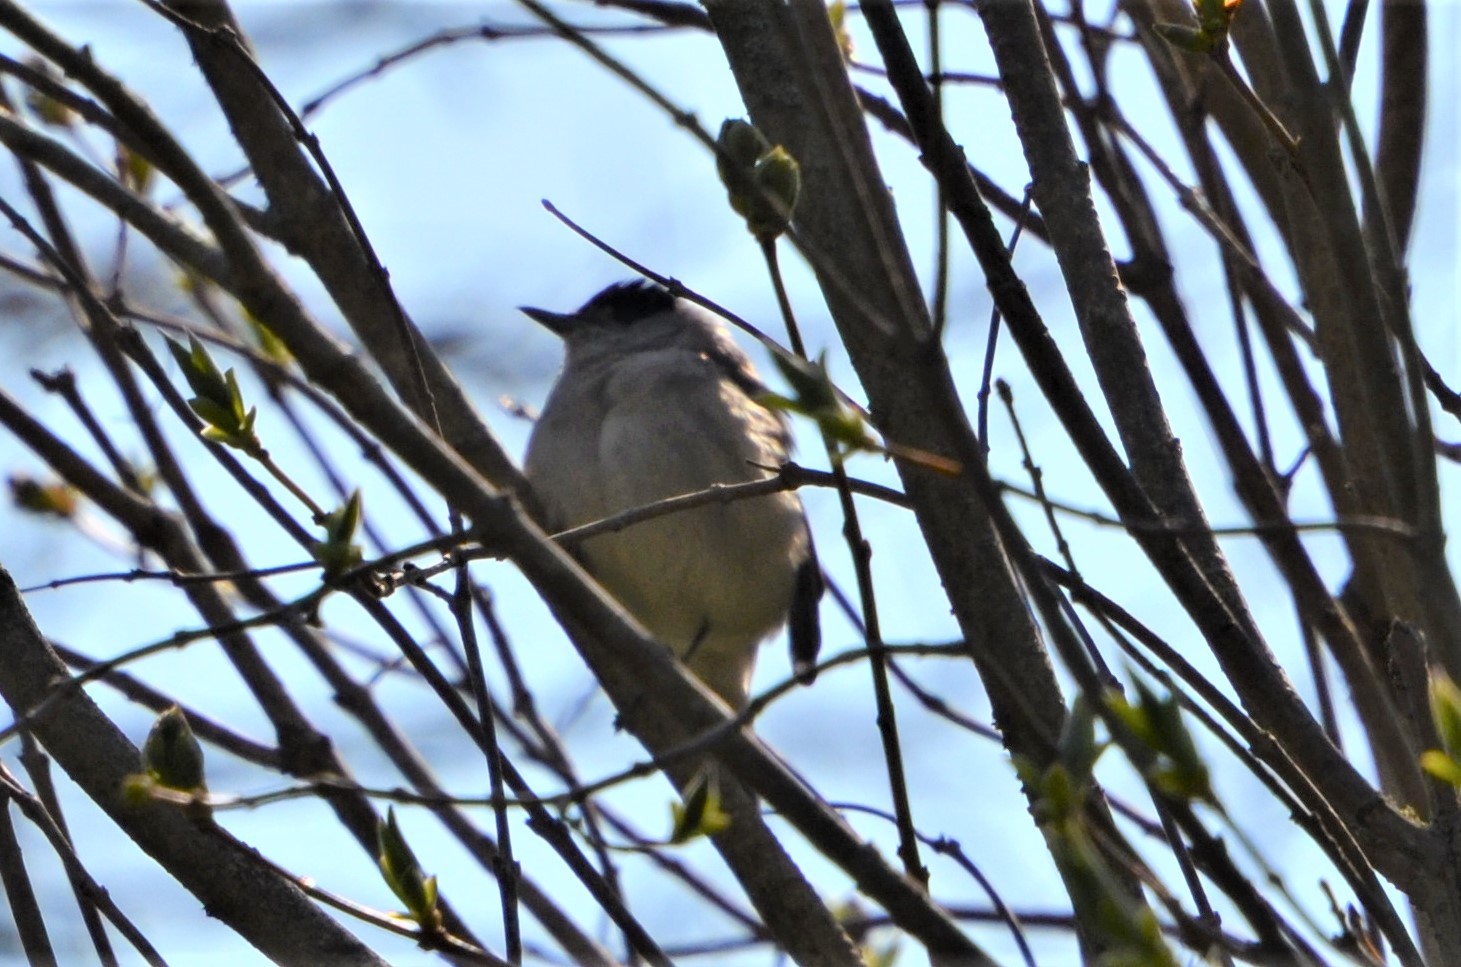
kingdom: Animalia
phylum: Chordata
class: Aves
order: Passeriformes
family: Sylviidae
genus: Sylvia
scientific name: Sylvia atricapilla
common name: Eurasian blackcap
